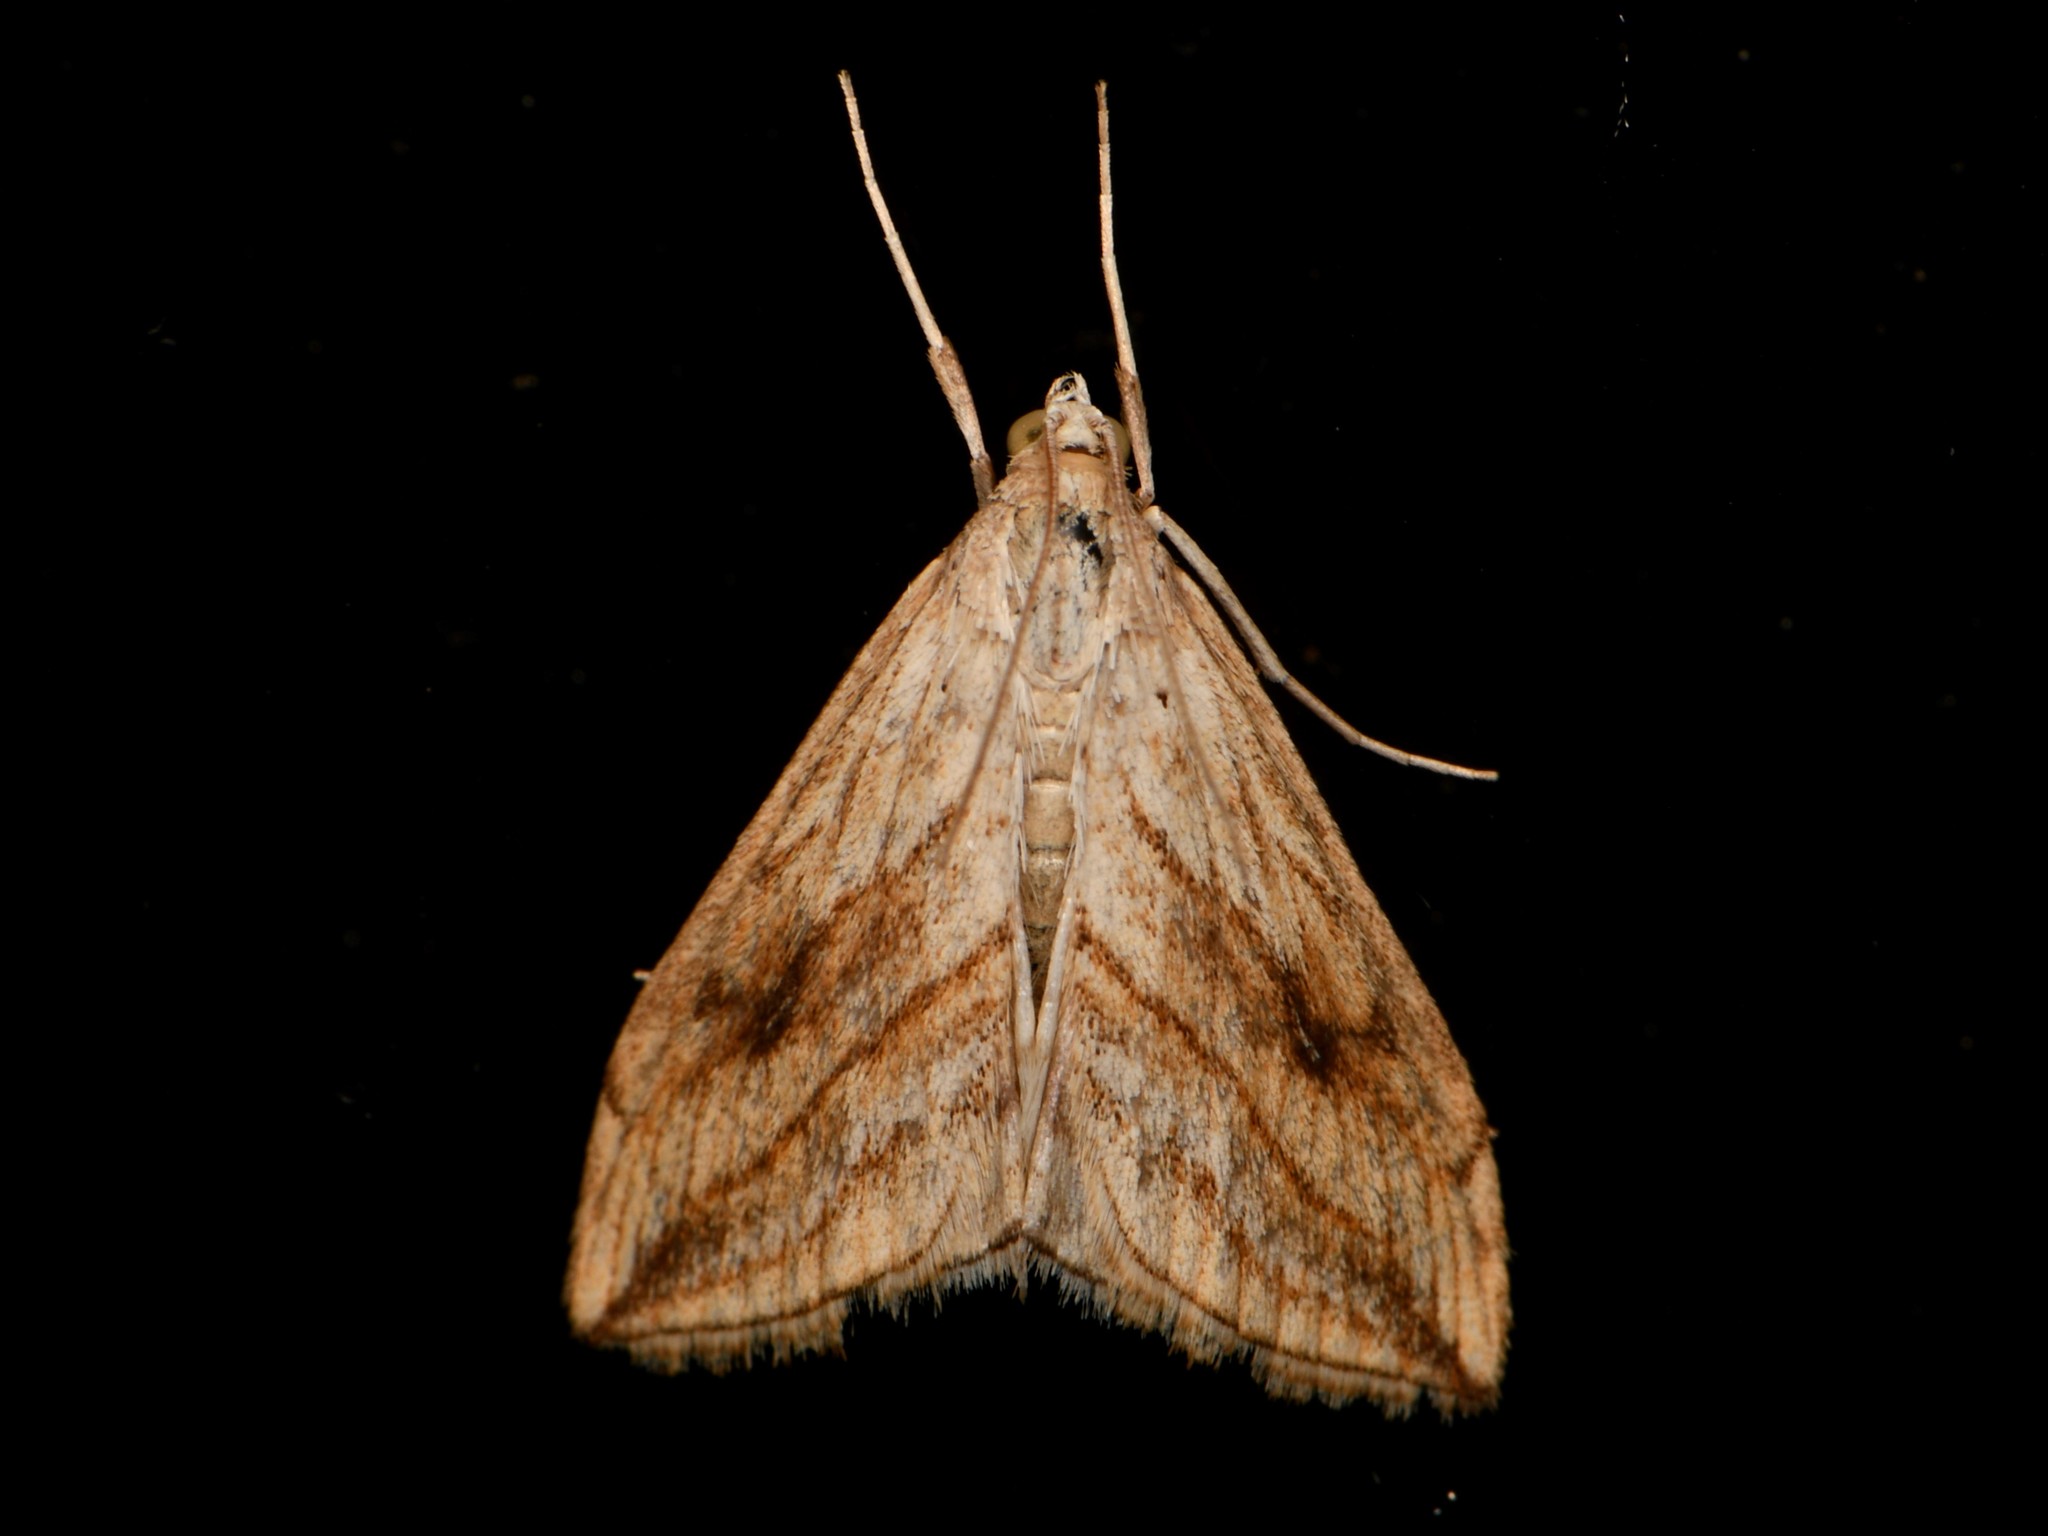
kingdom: Animalia
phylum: Arthropoda
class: Insecta
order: Lepidoptera
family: Crambidae
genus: Evergestis
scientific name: Evergestis forficalis
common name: Garden pebble
